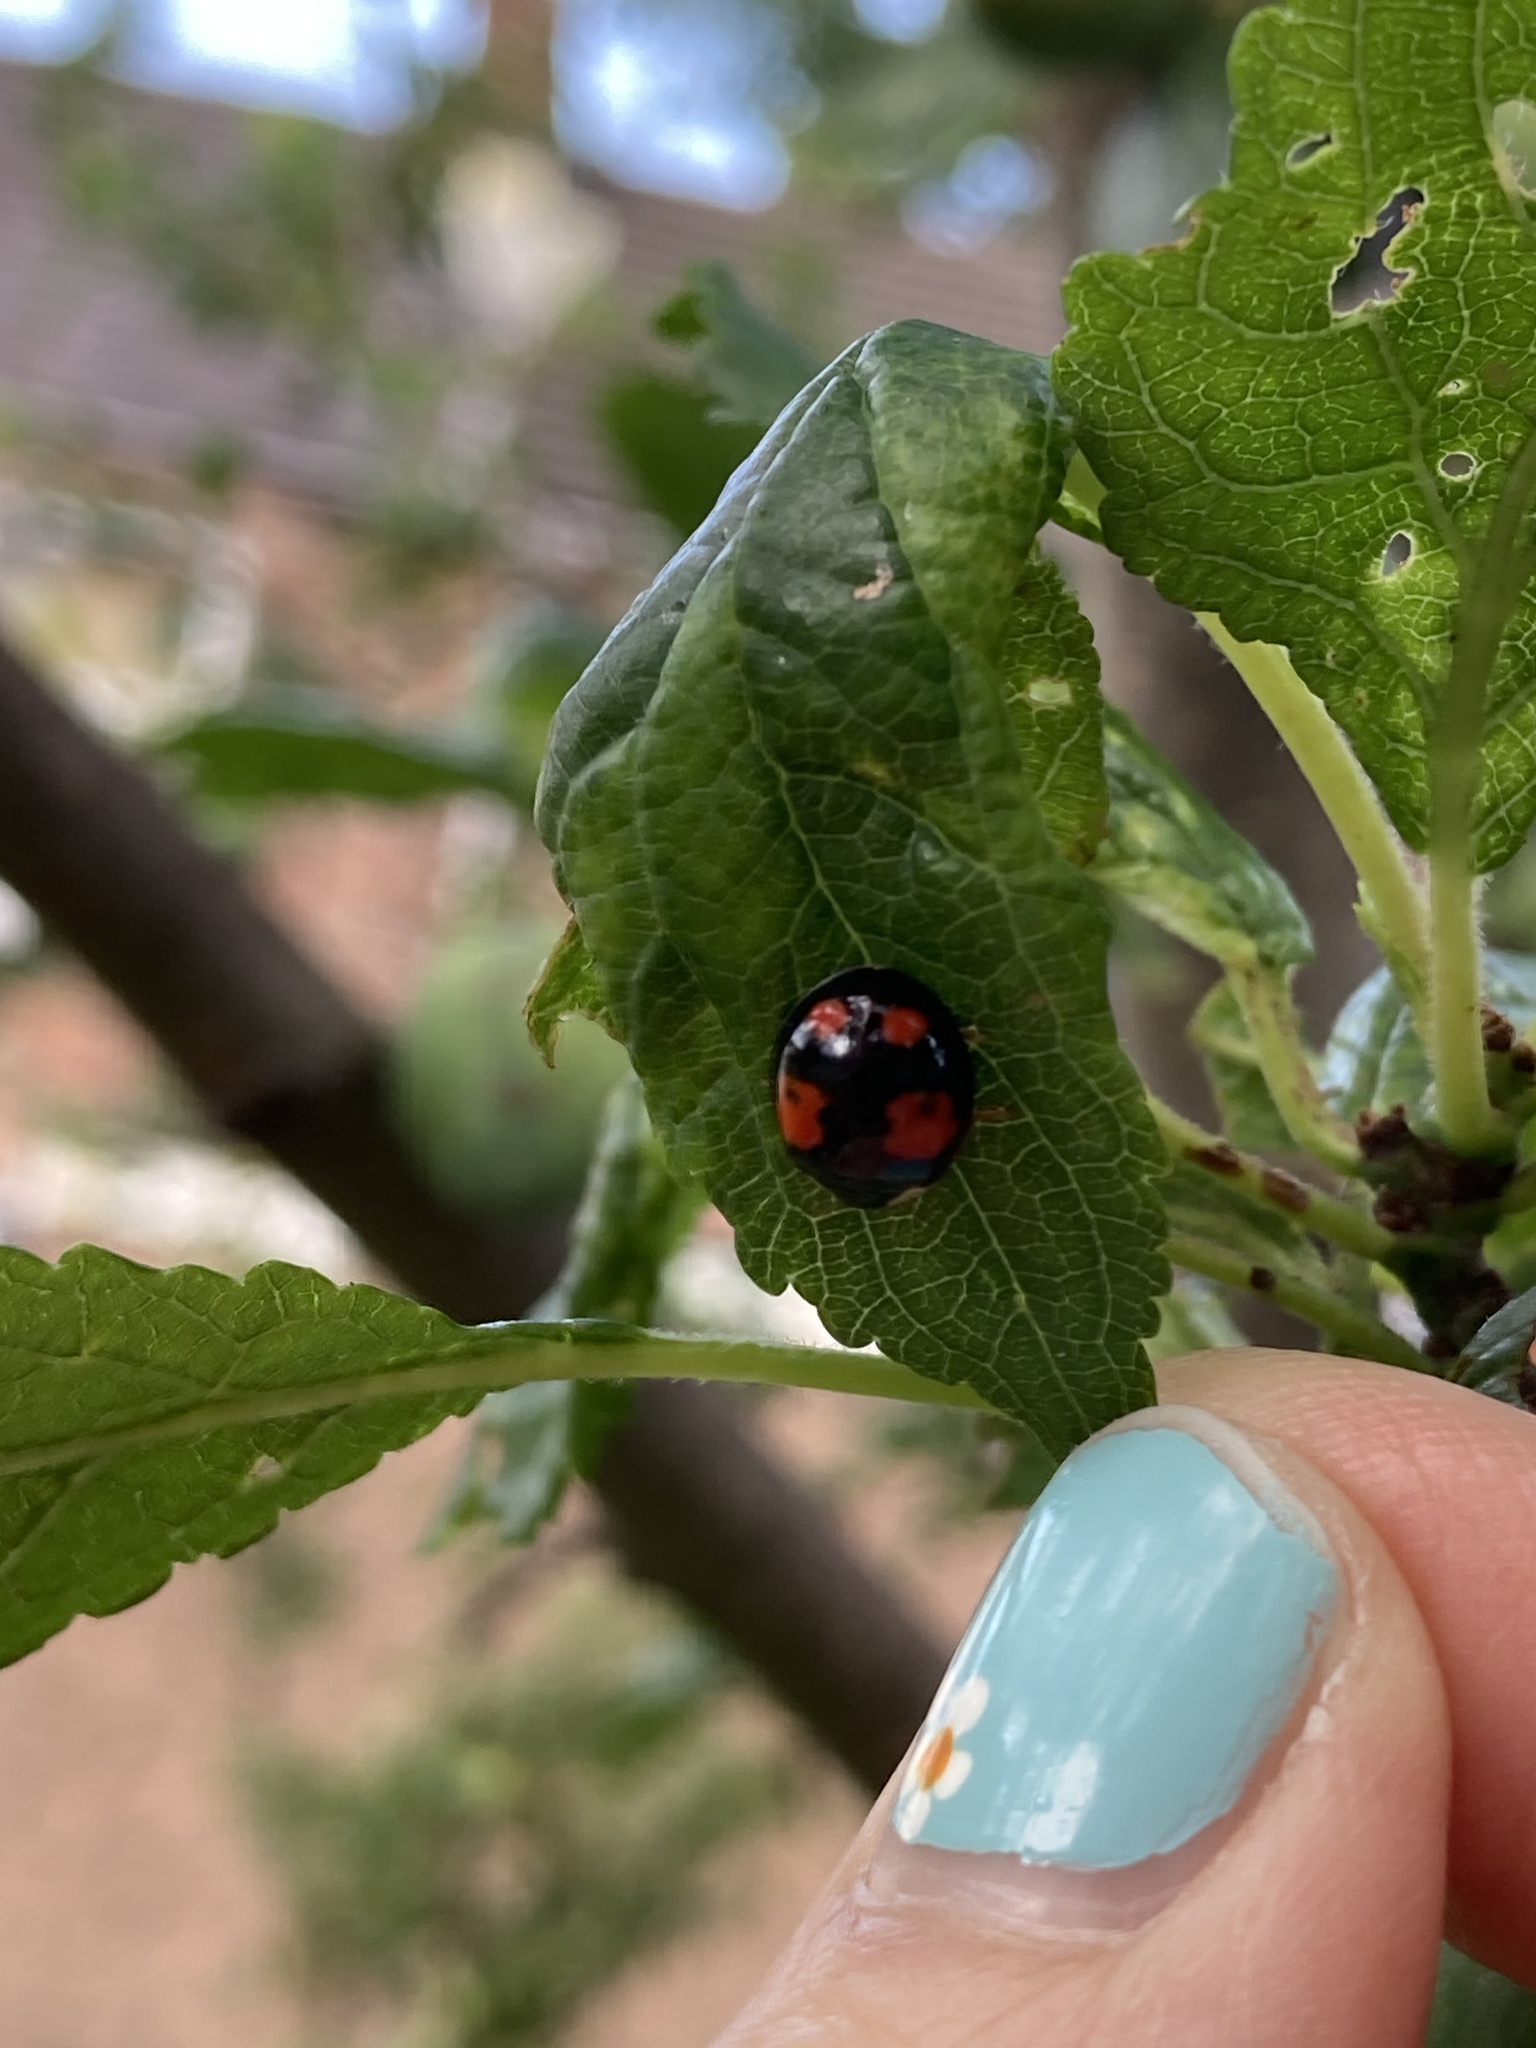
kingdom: Animalia
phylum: Arthropoda
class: Insecta
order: Coleoptera
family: Coccinellidae
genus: Harmonia
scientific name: Harmonia axyridis
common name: Harlequin ladybird
